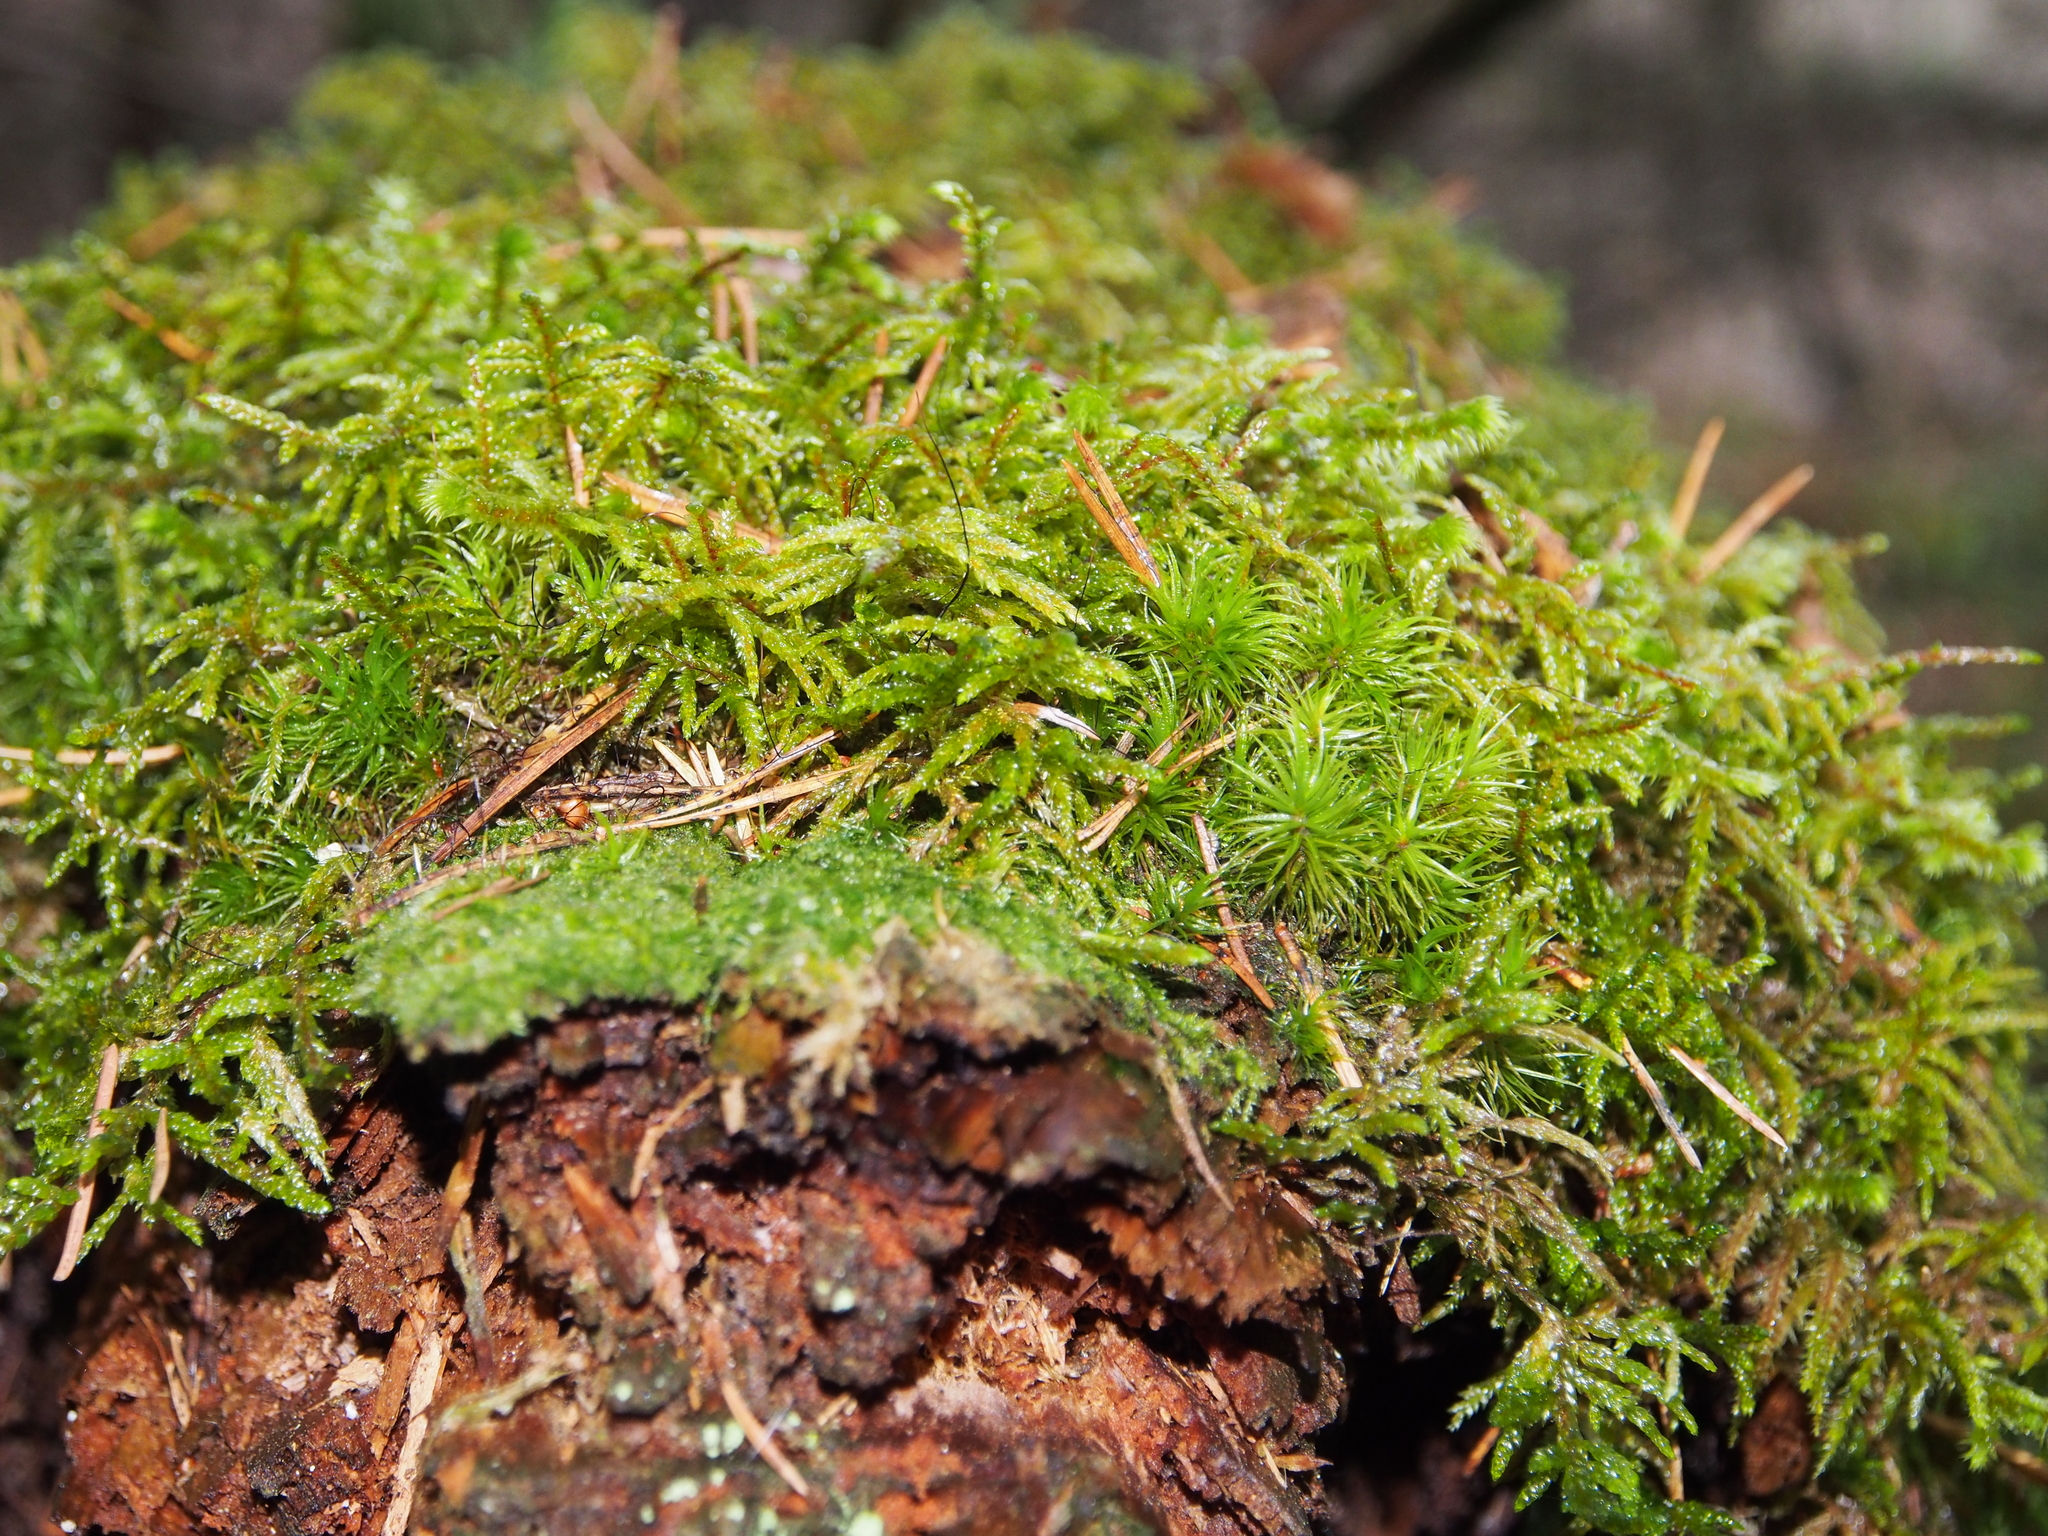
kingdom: Plantae
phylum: Bryophyta
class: Bryopsida
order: Hypnales
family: Hylocomiaceae
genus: Pleurozium
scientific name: Pleurozium schreberi
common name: Red-stemmed feather moss
